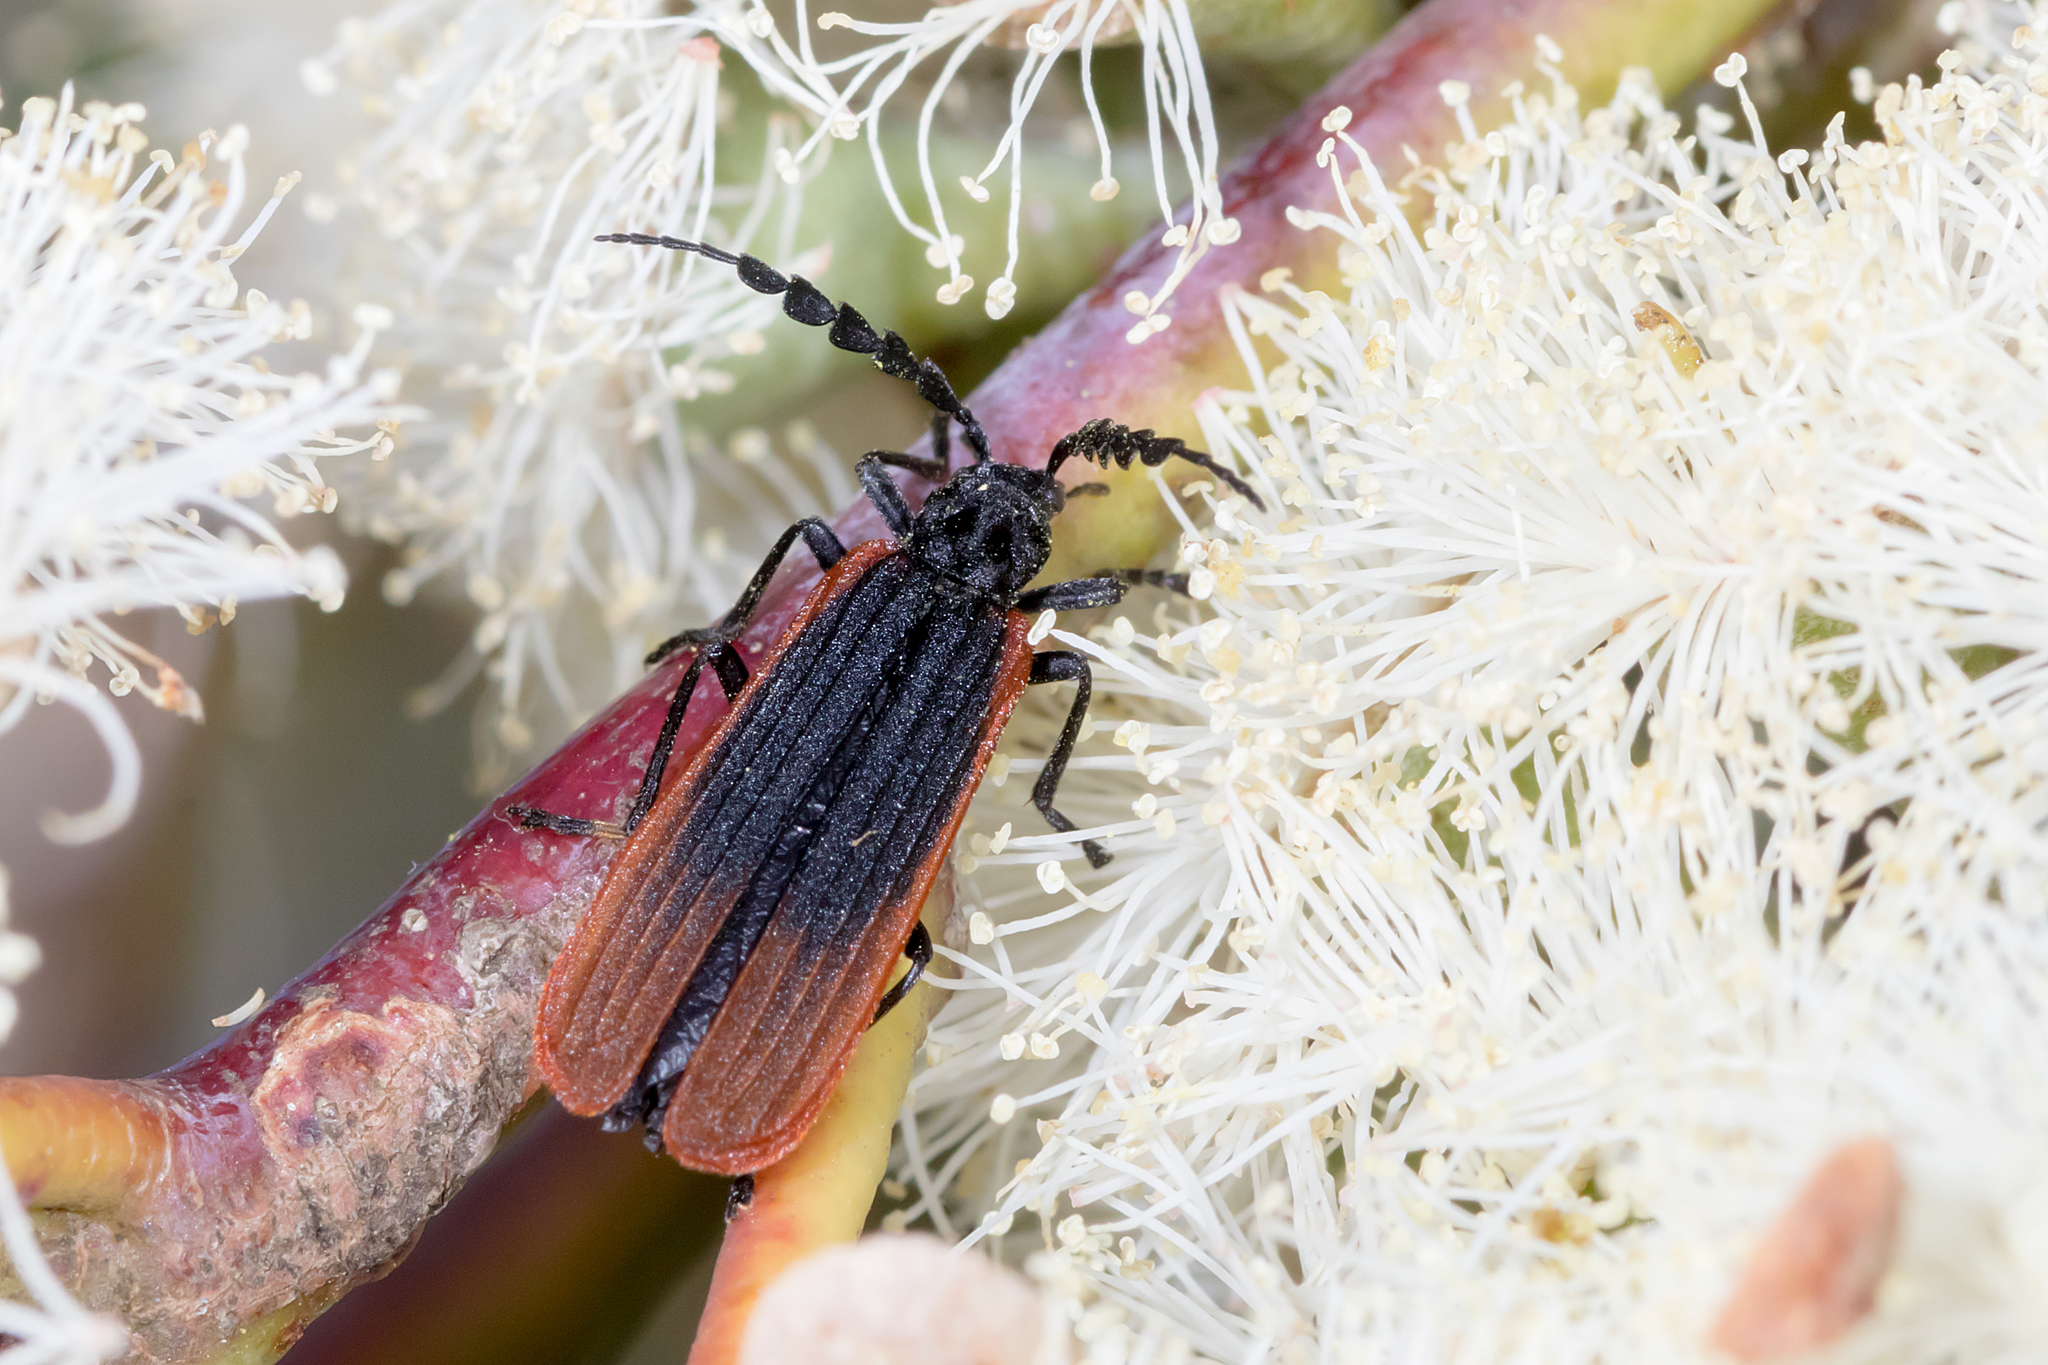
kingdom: Animalia
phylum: Arthropoda
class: Insecta
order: Coleoptera
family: Oedemeridae
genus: Pseudolycus
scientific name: Pseudolycus
